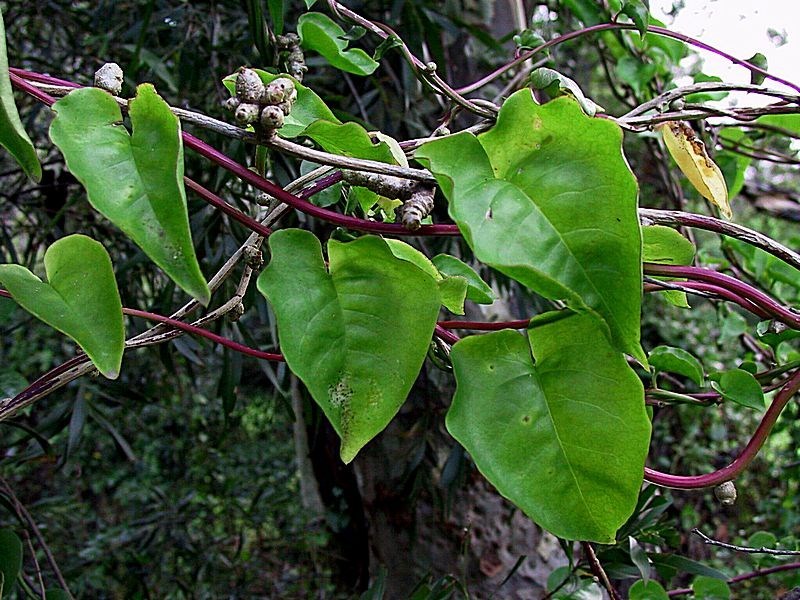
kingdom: Plantae
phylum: Tracheophyta
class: Magnoliopsida
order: Caryophyllales
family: Basellaceae
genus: Anredera
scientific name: Anredera cordifolia
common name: Heartleaf madeiravine
